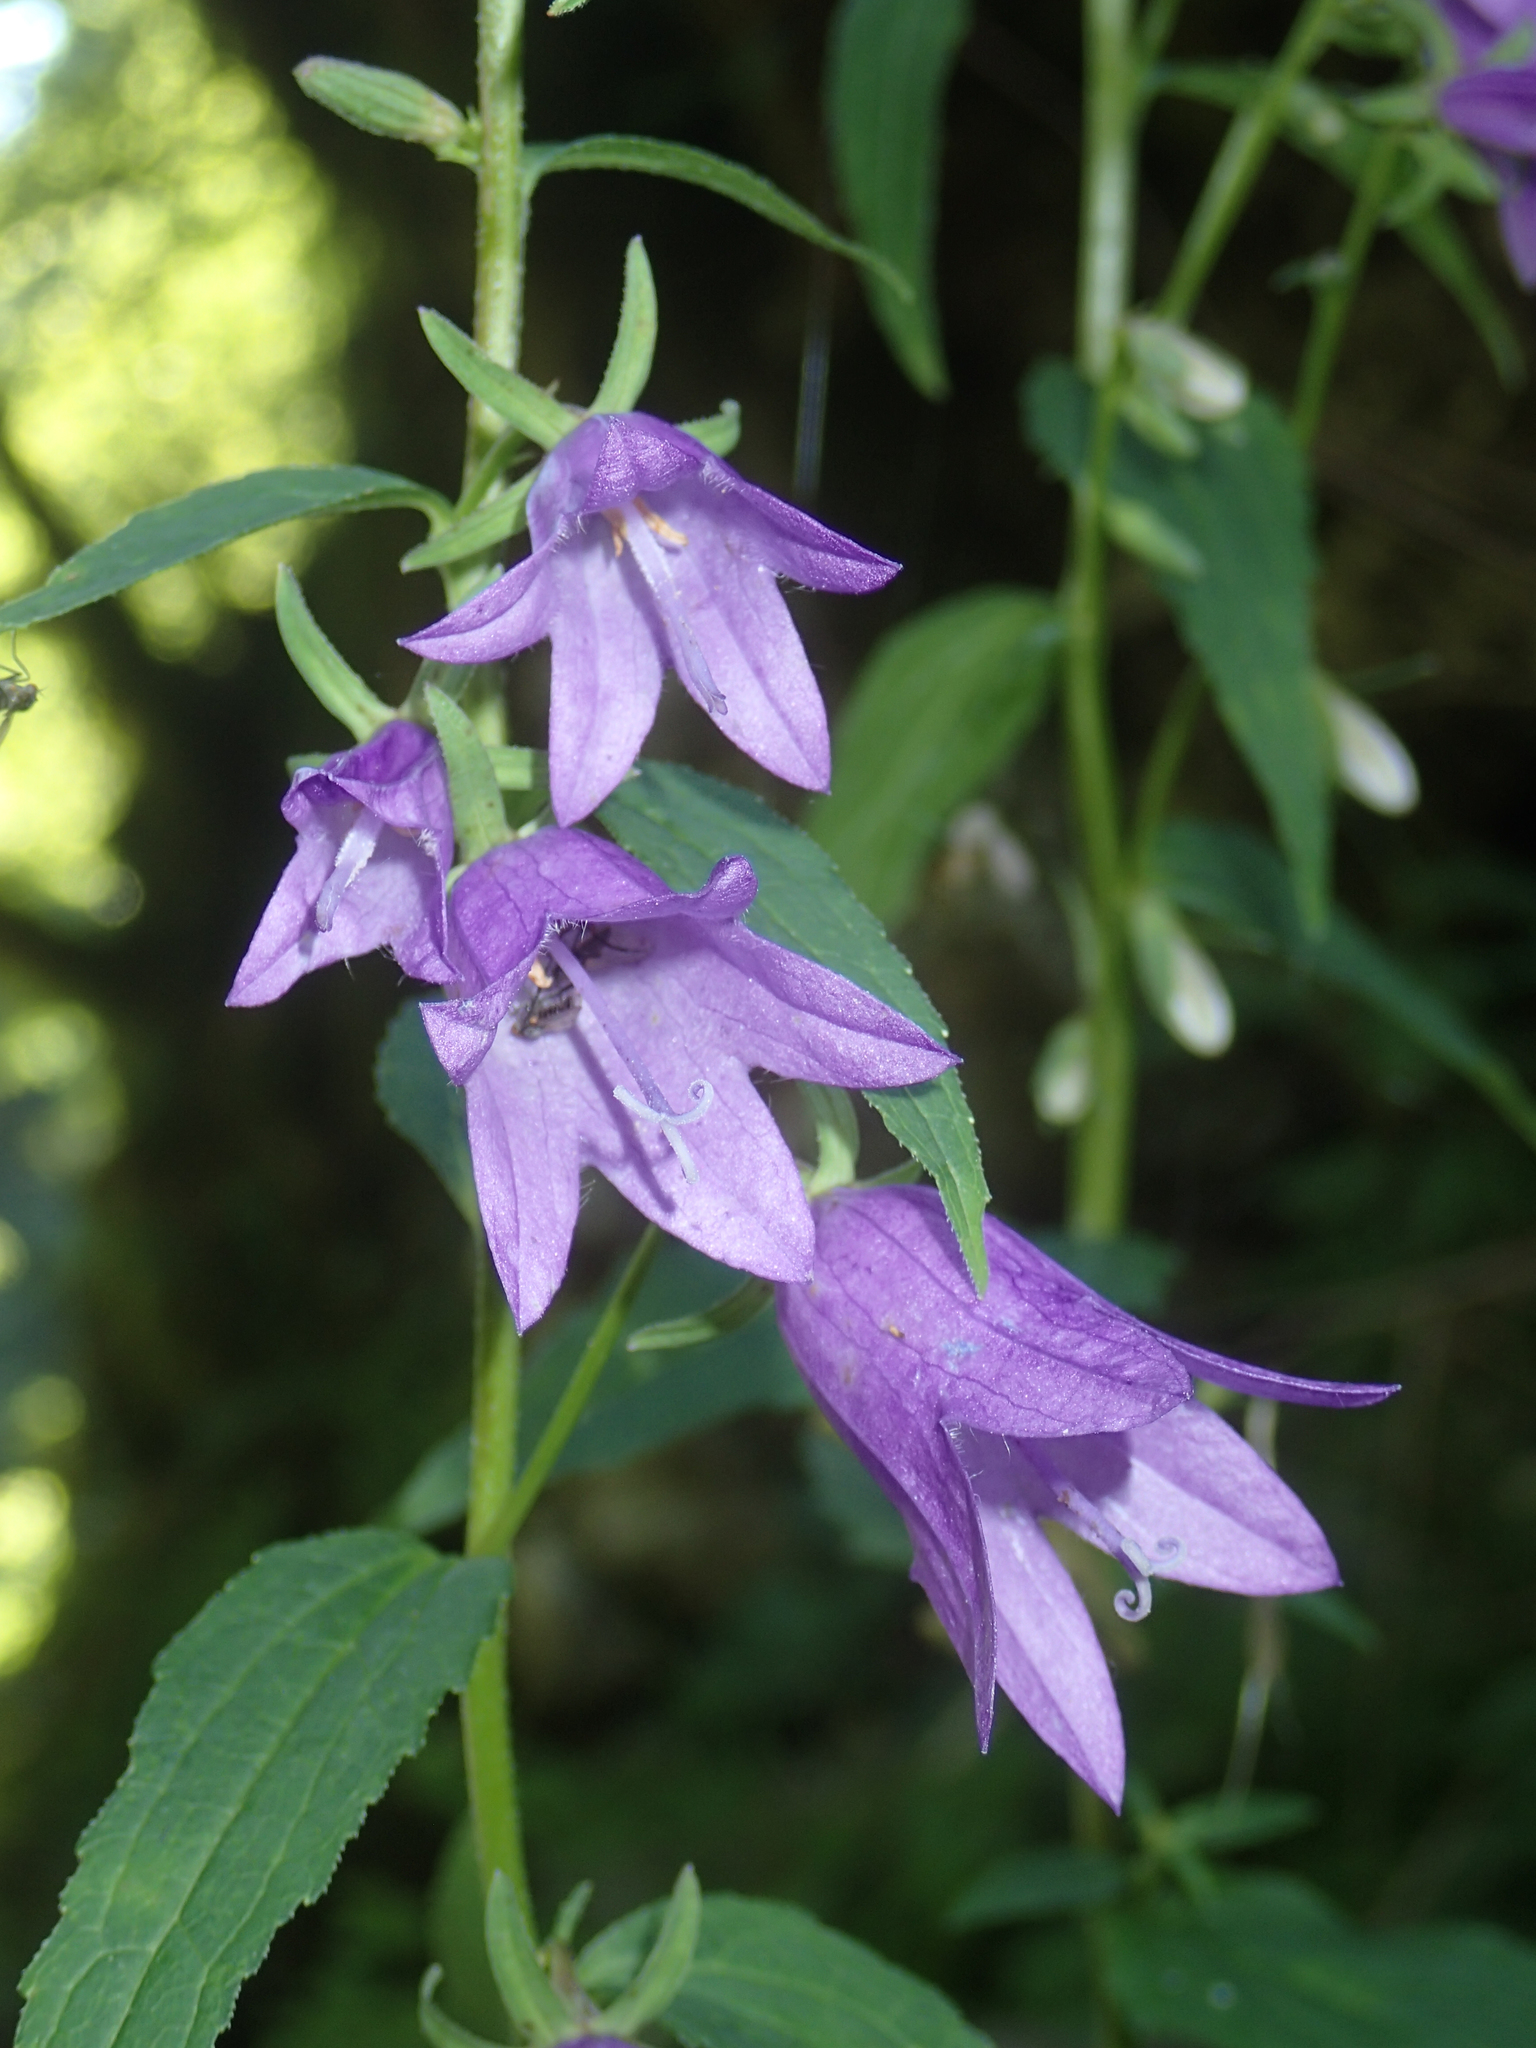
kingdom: Plantae
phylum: Tracheophyta
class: Magnoliopsida
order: Asterales
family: Campanulaceae
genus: Campanula
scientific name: Campanula rapunculoides
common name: Creeping bellflower
